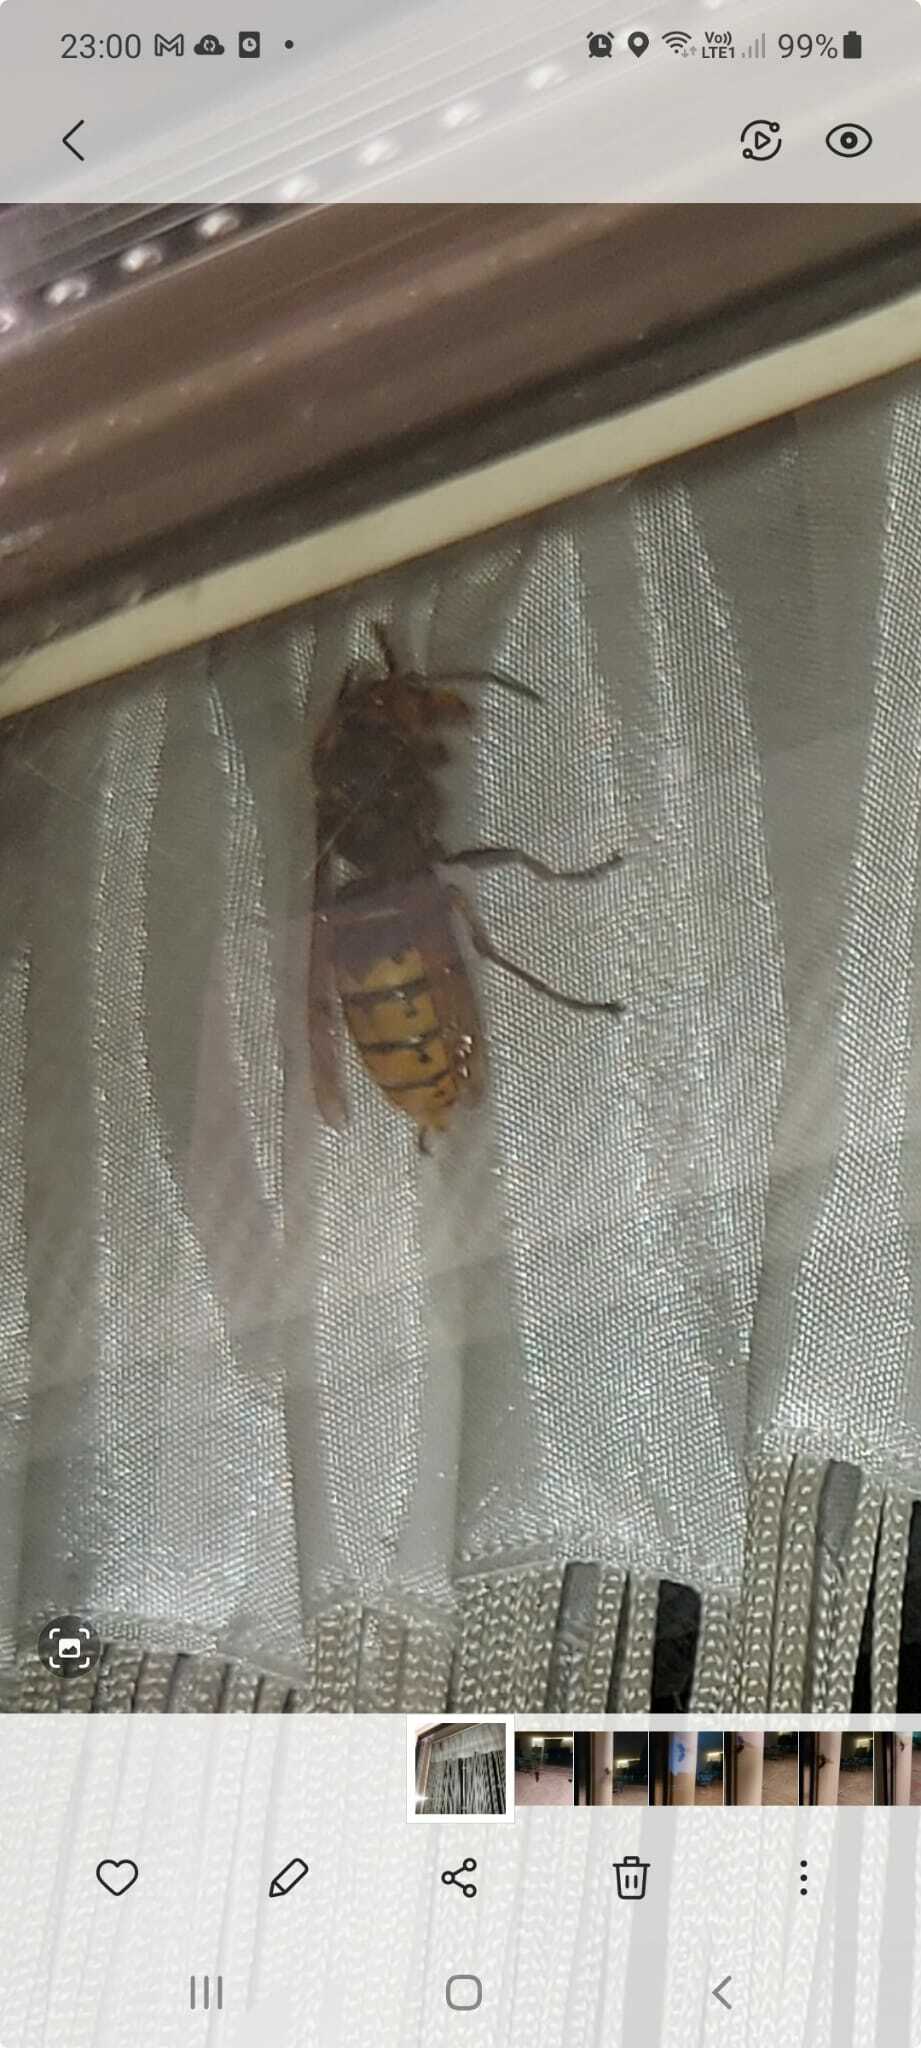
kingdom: Animalia
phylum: Arthropoda
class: Insecta
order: Hymenoptera
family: Vespidae
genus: Vespa
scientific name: Vespa crabro
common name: Hornet
